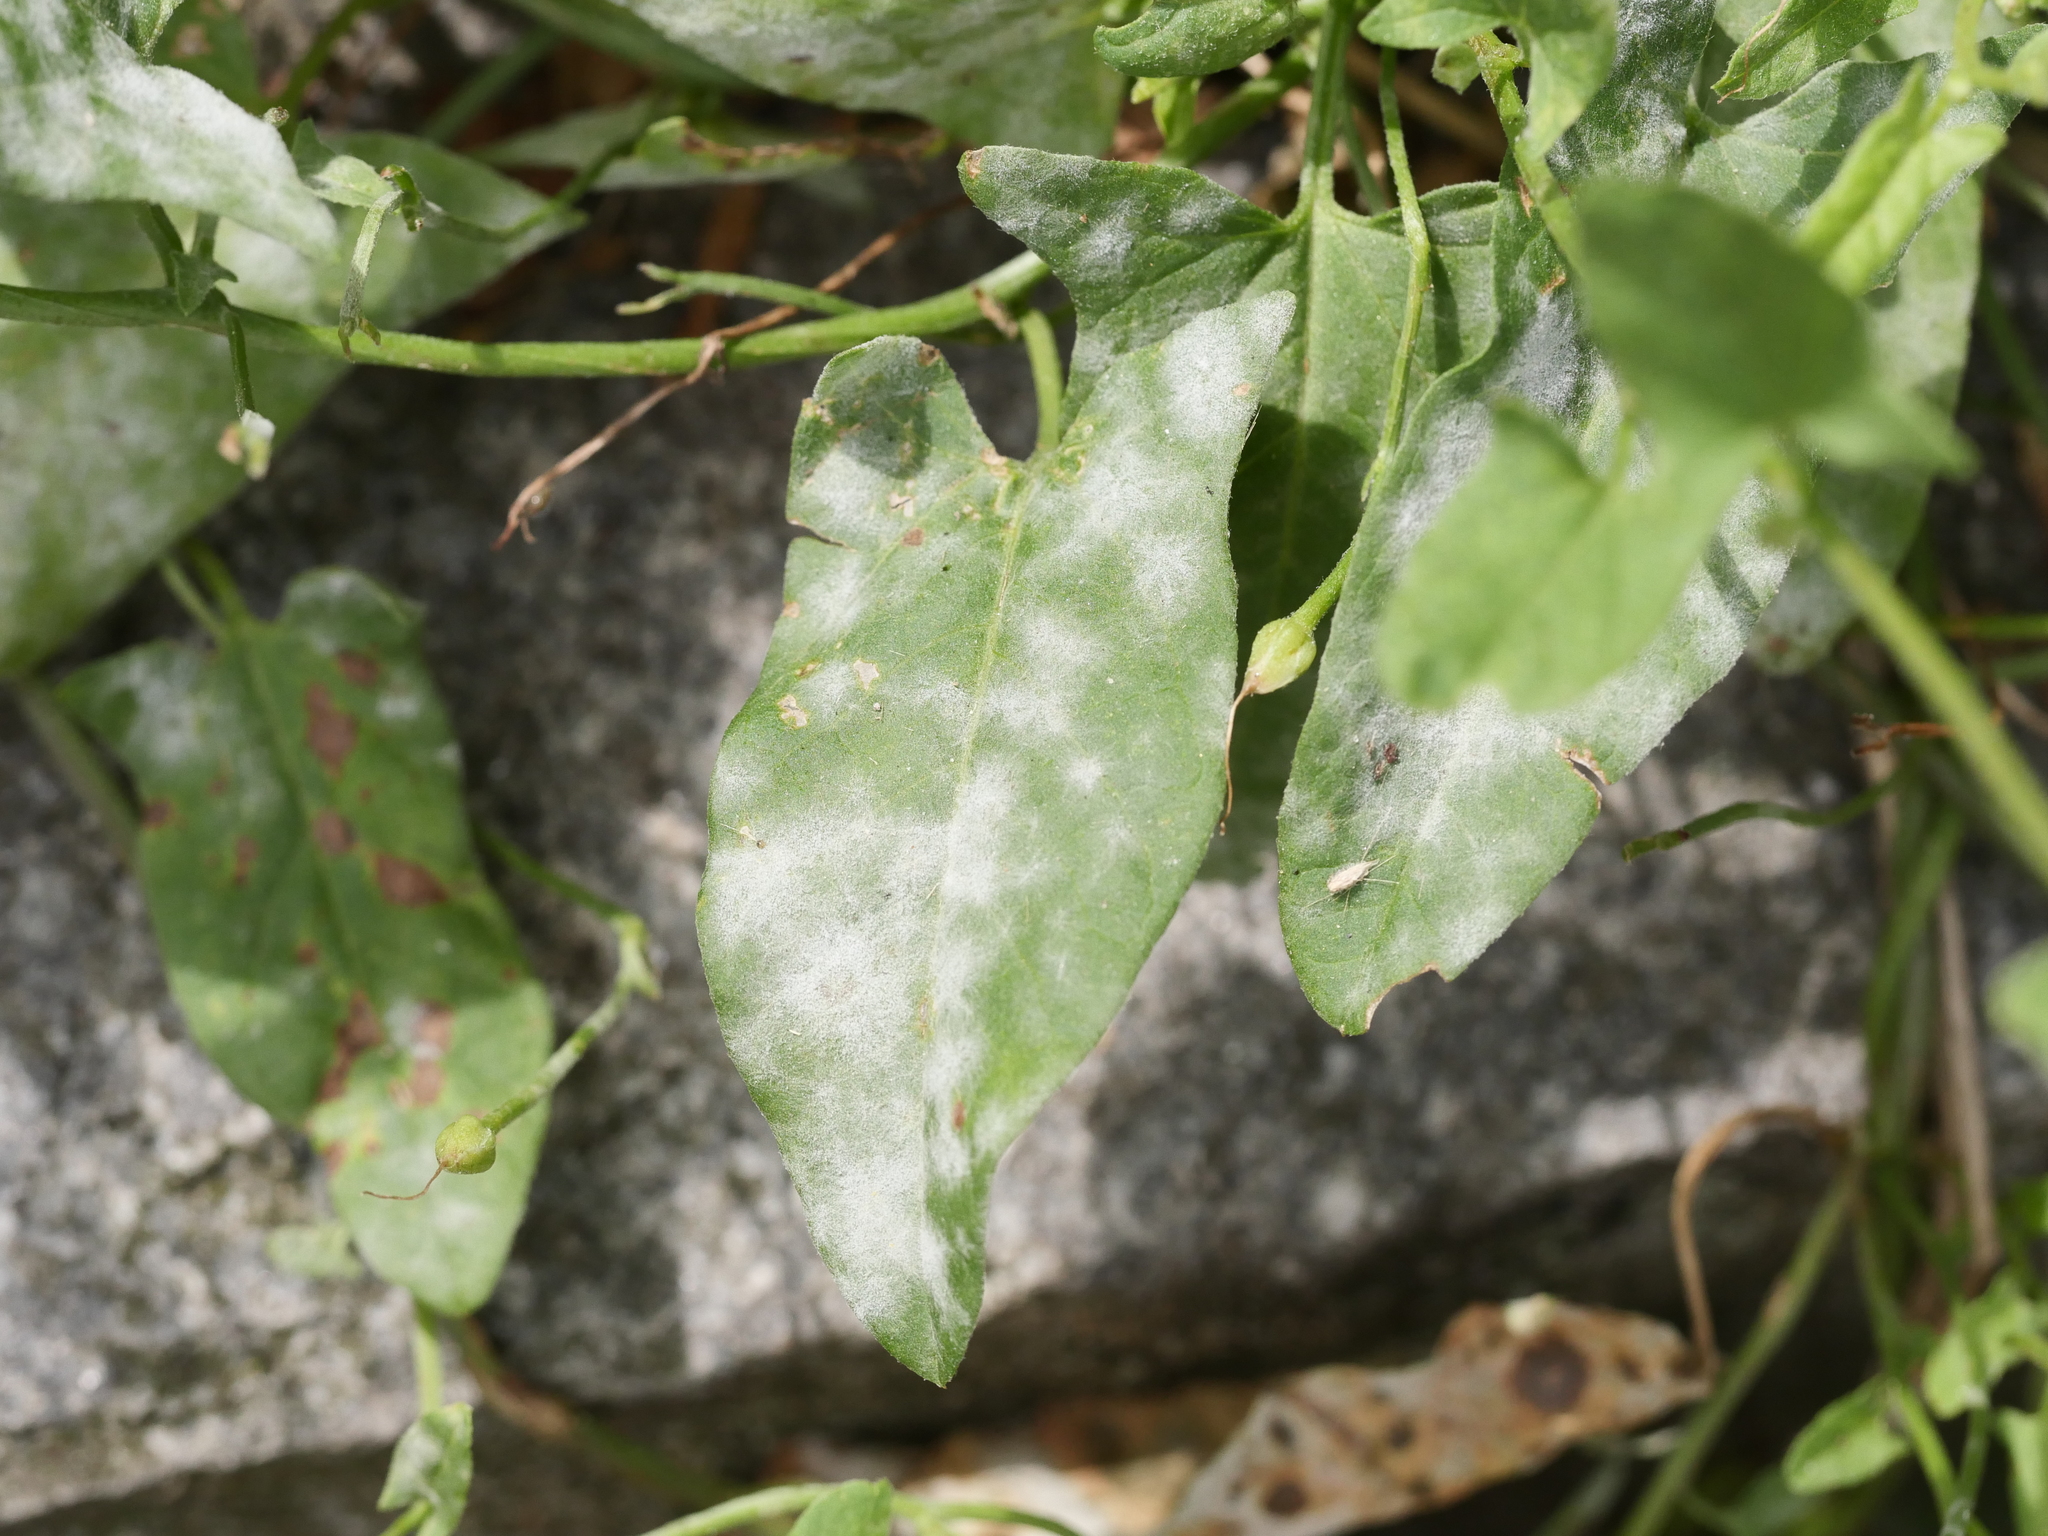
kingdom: Fungi
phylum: Ascomycota
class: Leotiomycetes
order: Helotiales
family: Erysiphaceae
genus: Erysiphe
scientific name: Erysiphe convolvuli
